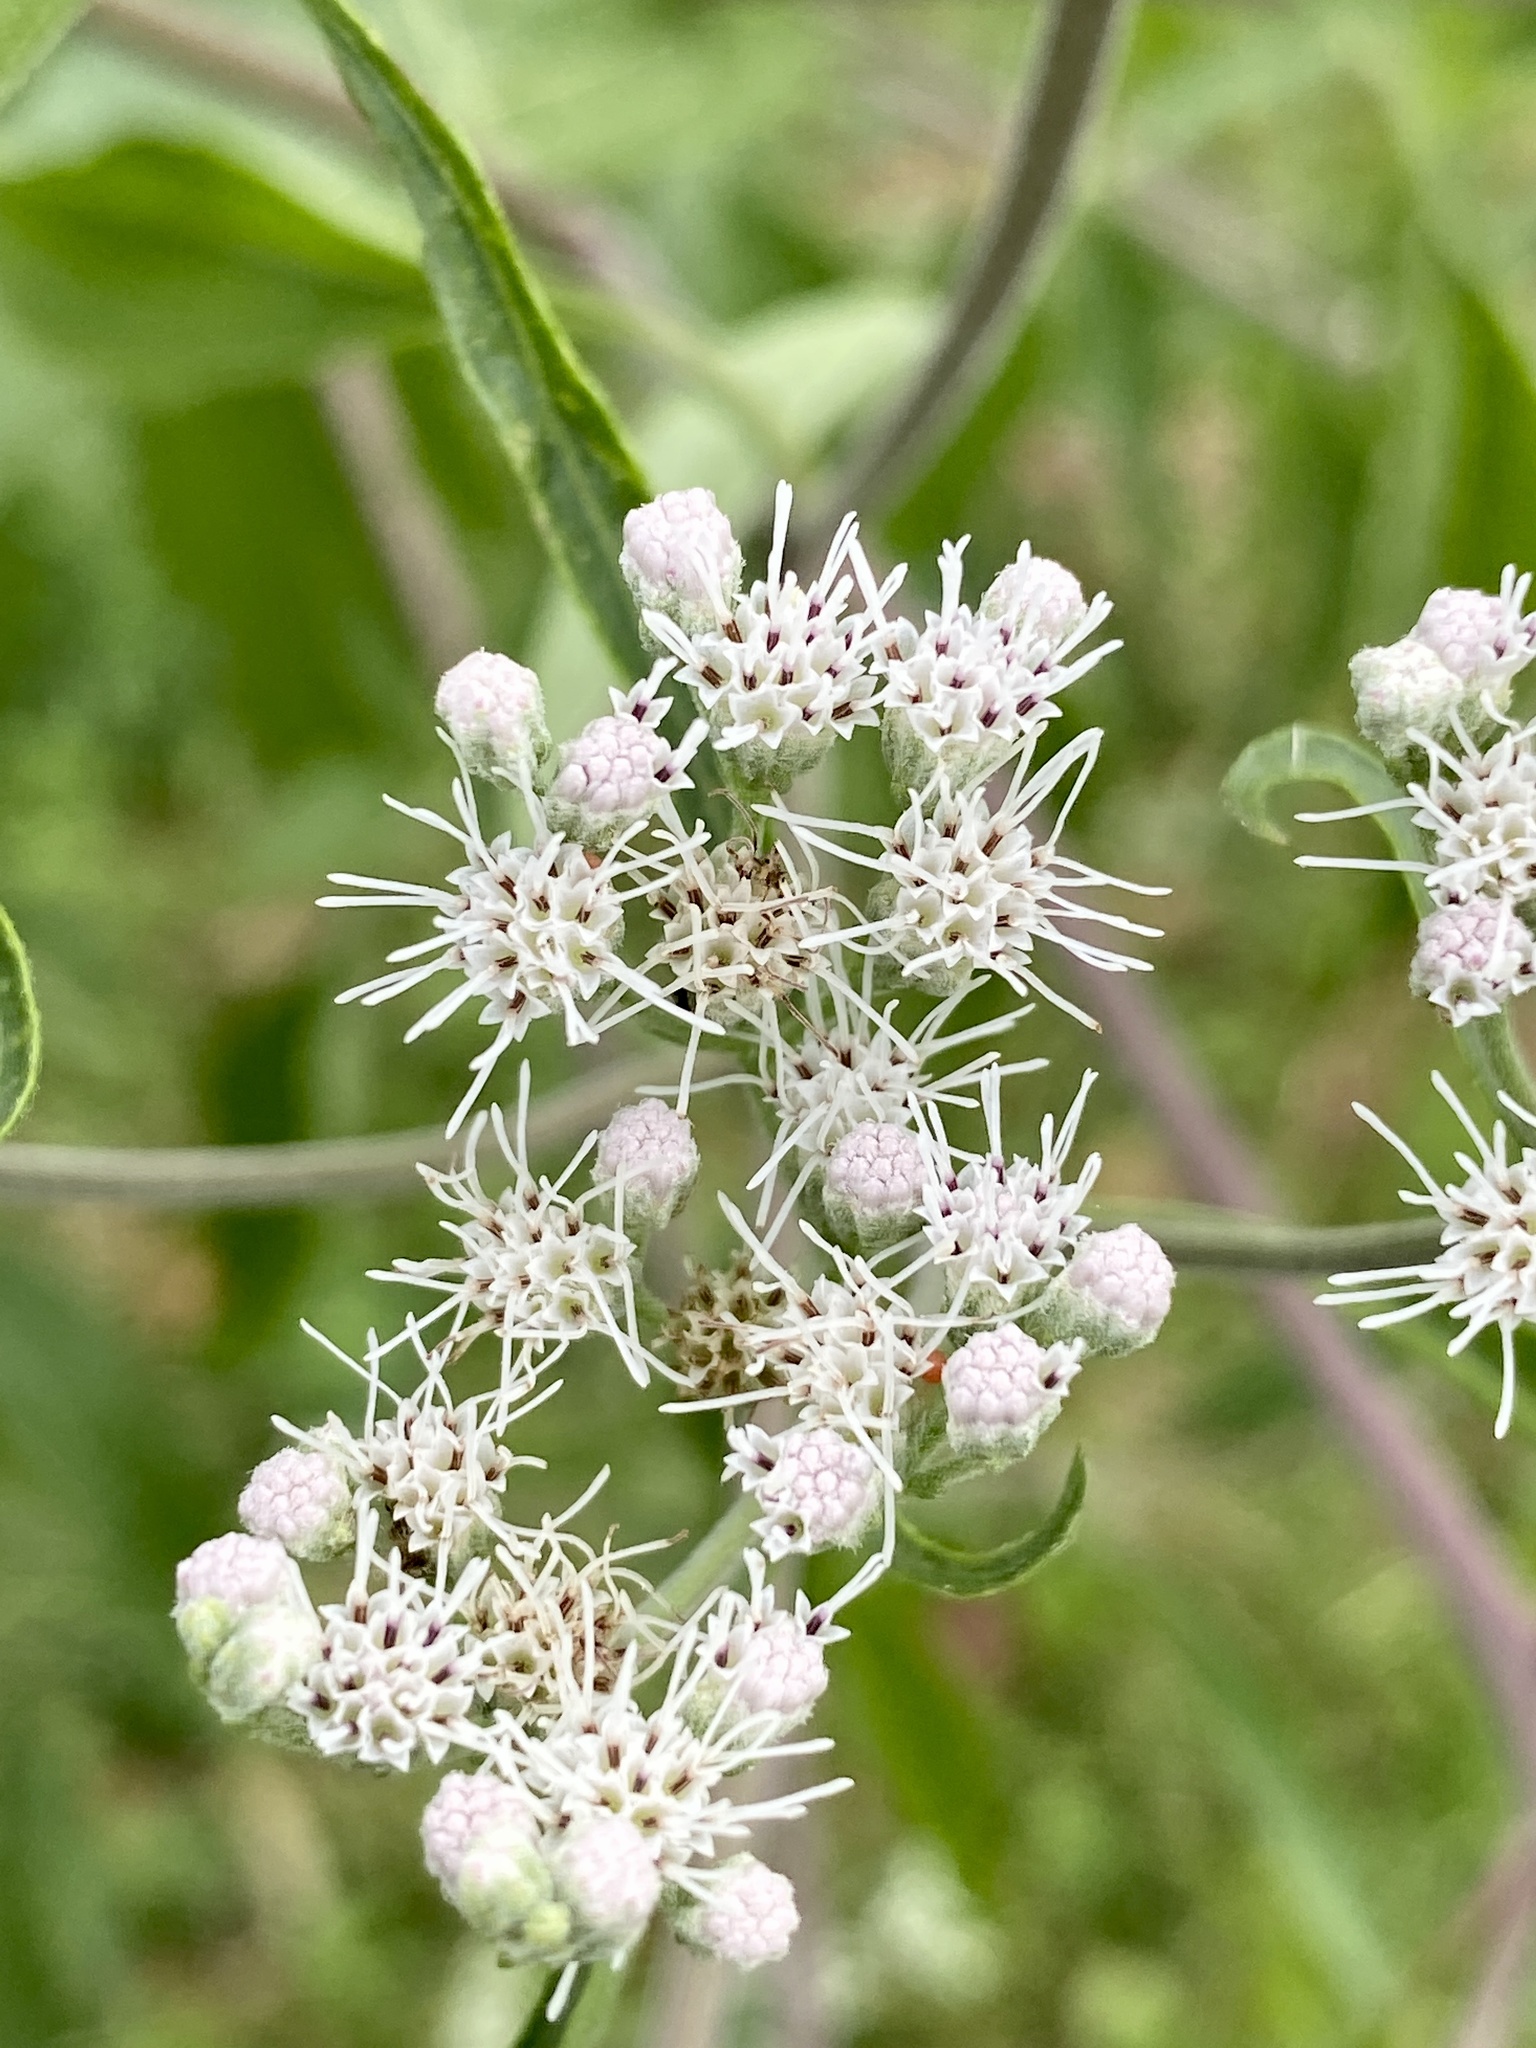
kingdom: Plantae
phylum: Tracheophyta
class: Magnoliopsida
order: Asterales
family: Asteraceae
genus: Eupatorium
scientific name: Eupatorium serotinum
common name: Late boneset
